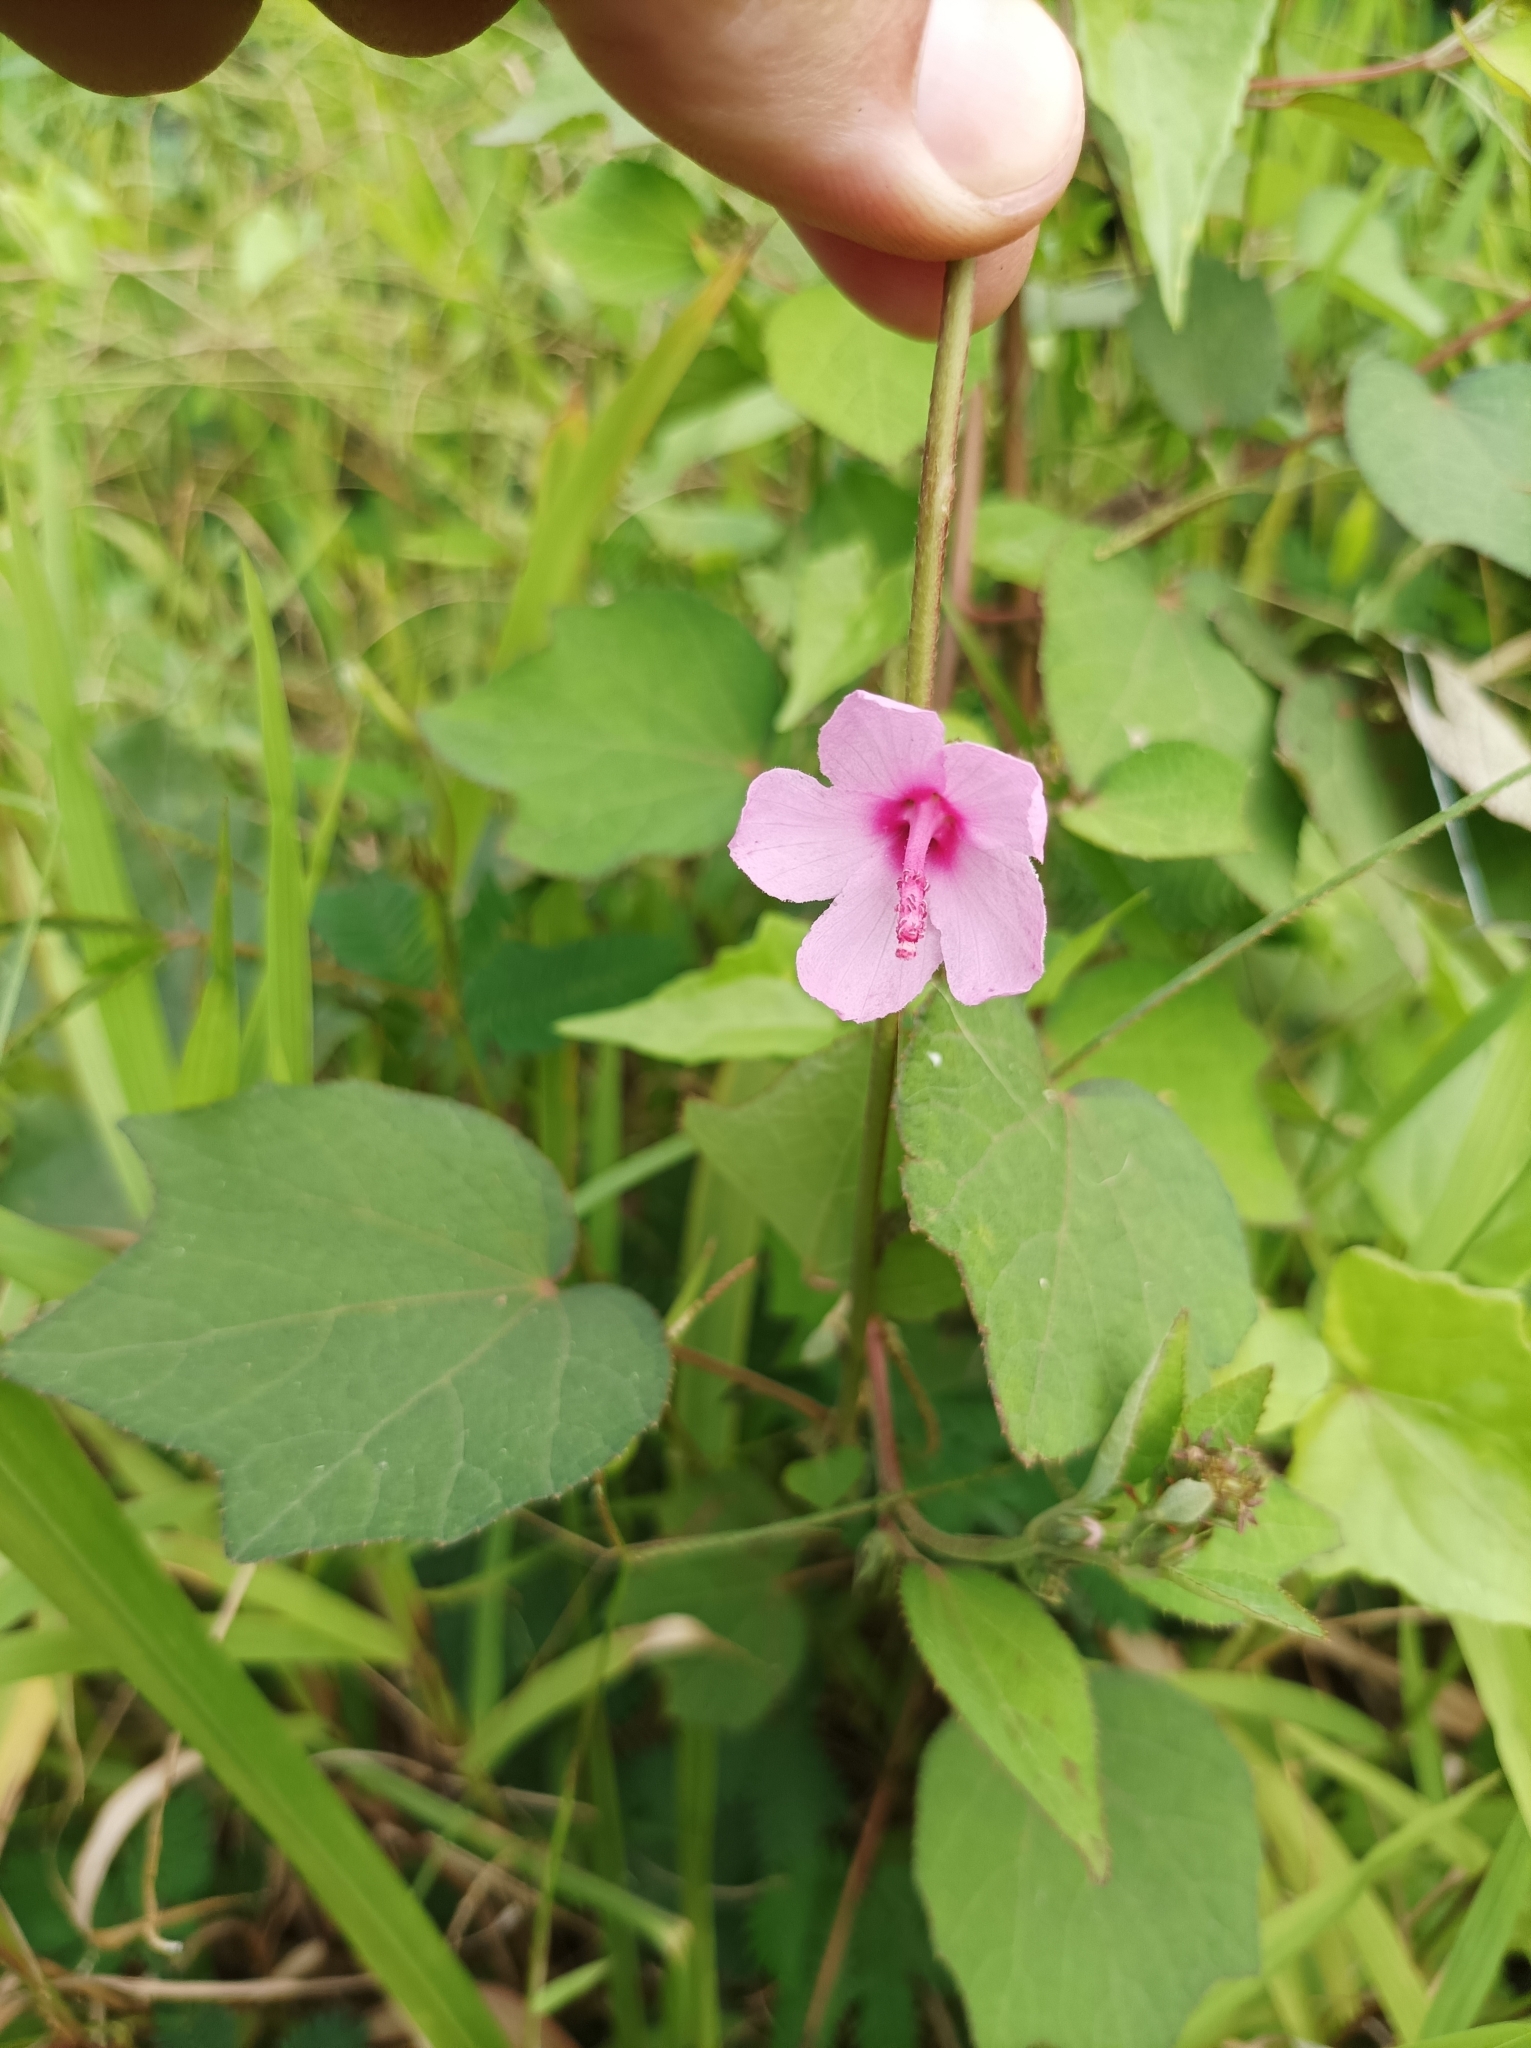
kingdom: Plantae
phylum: Tracheophyta
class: Magnoliopsida
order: Malvales
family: Malvaceae
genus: Urena
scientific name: Urena lobata
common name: Caesarweed
